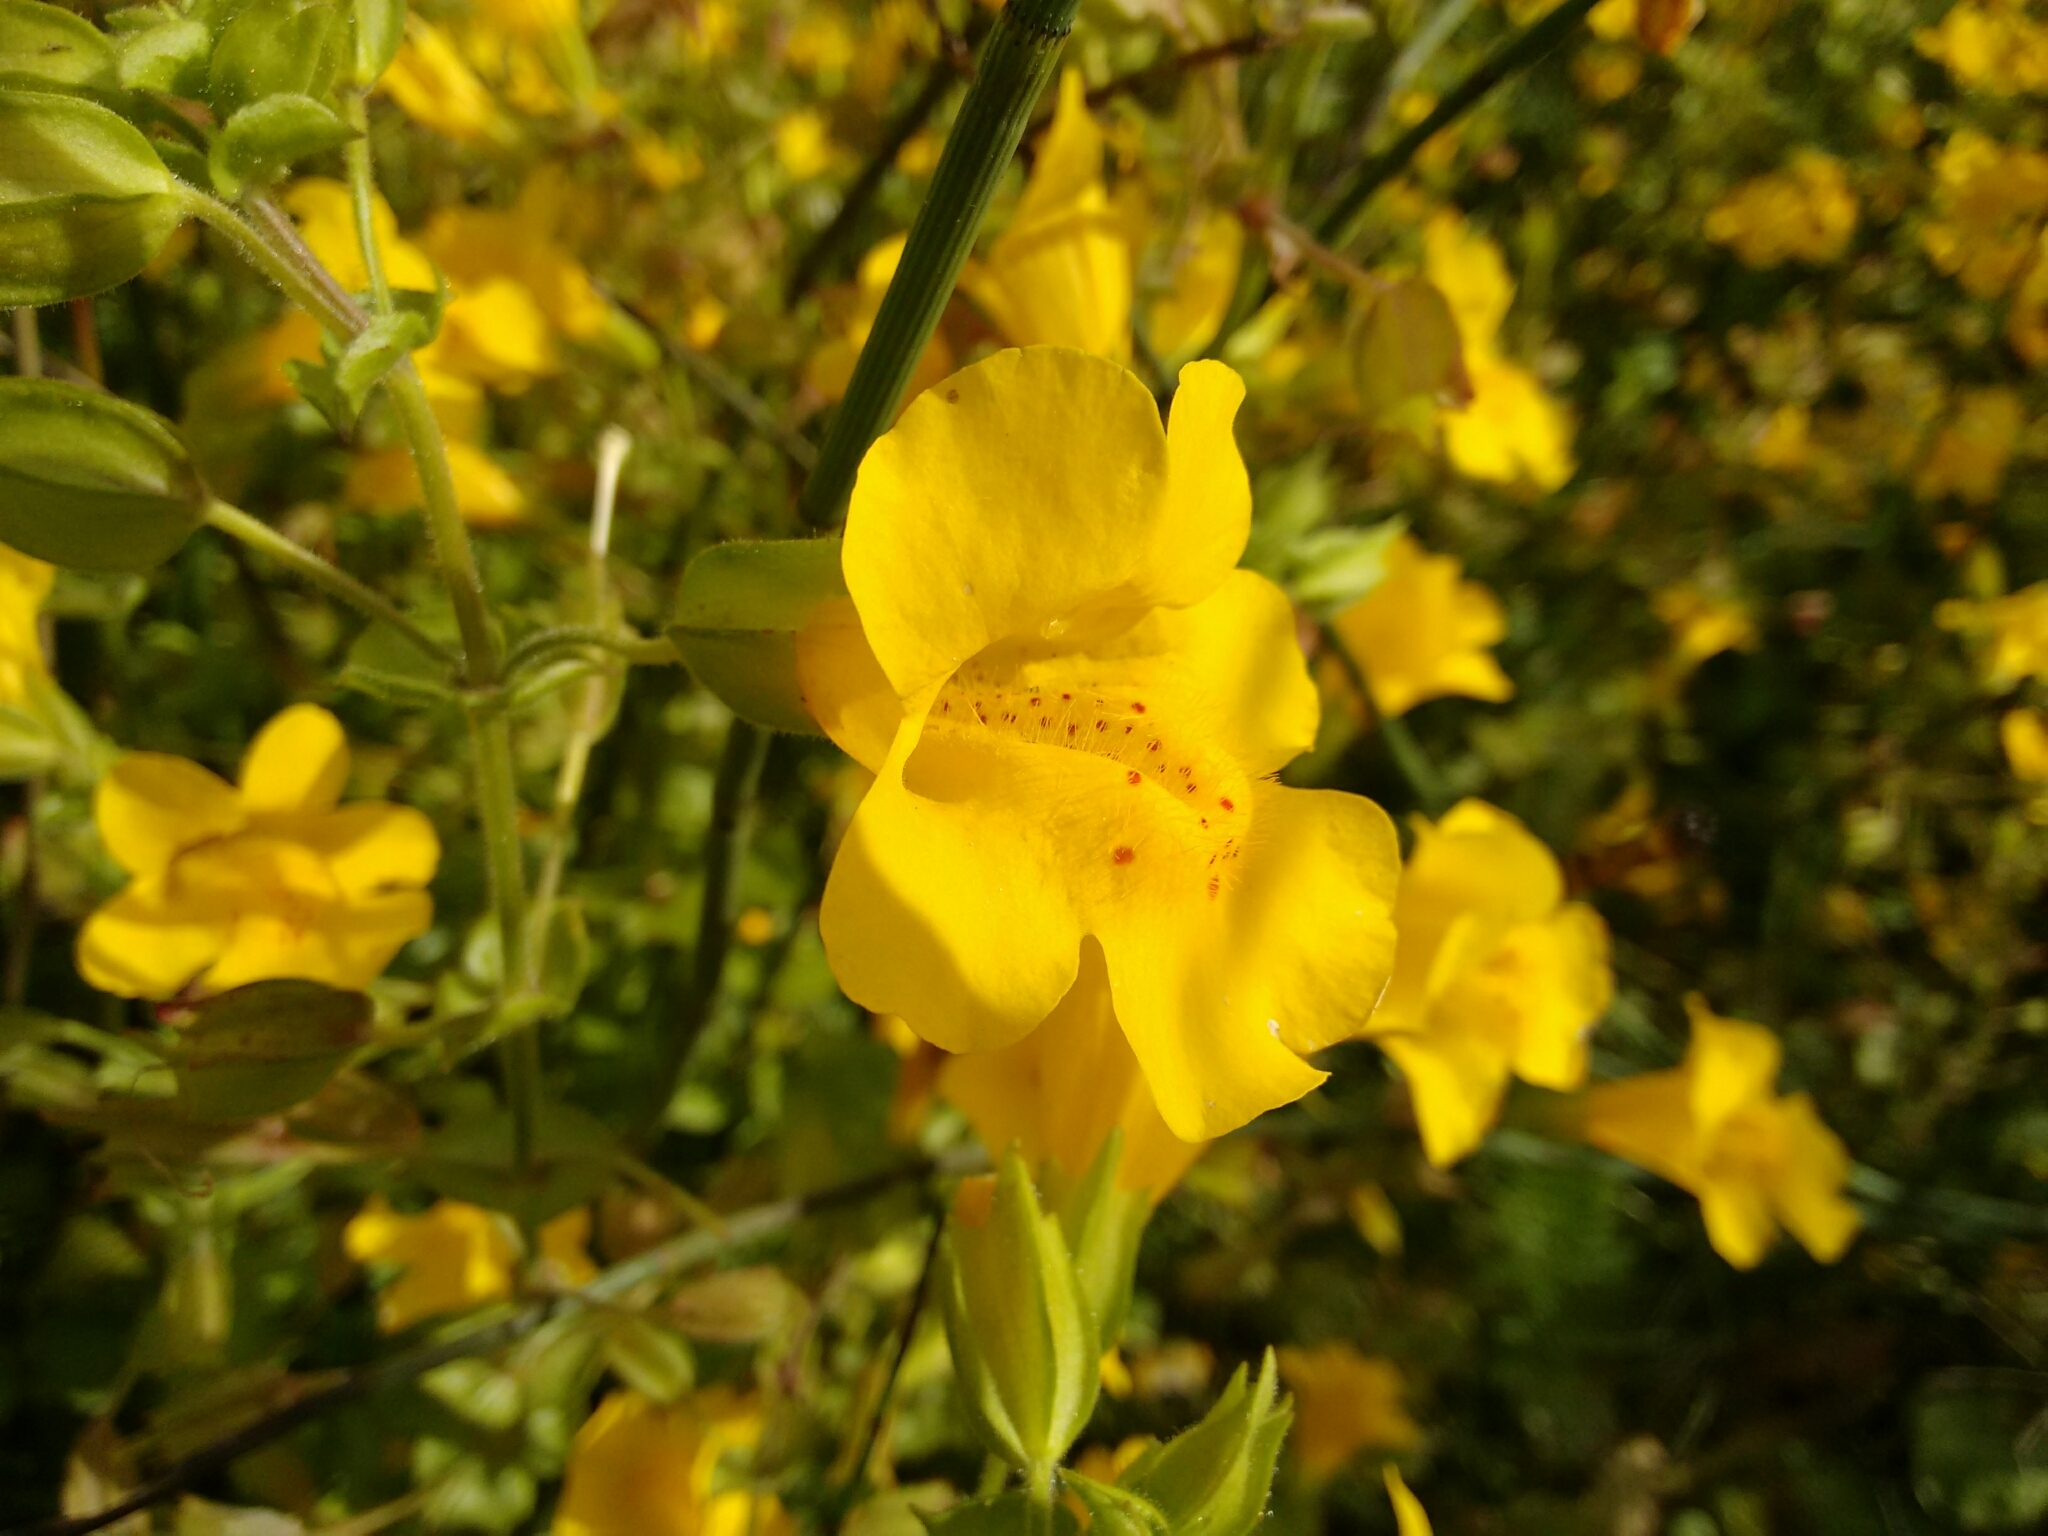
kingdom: Plantae
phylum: Tracheophyta
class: Magnoliopsida
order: Lamiales
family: Phrymaceae
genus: Erythranthe
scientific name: Erythranthe guttata
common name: Monkeyflower
